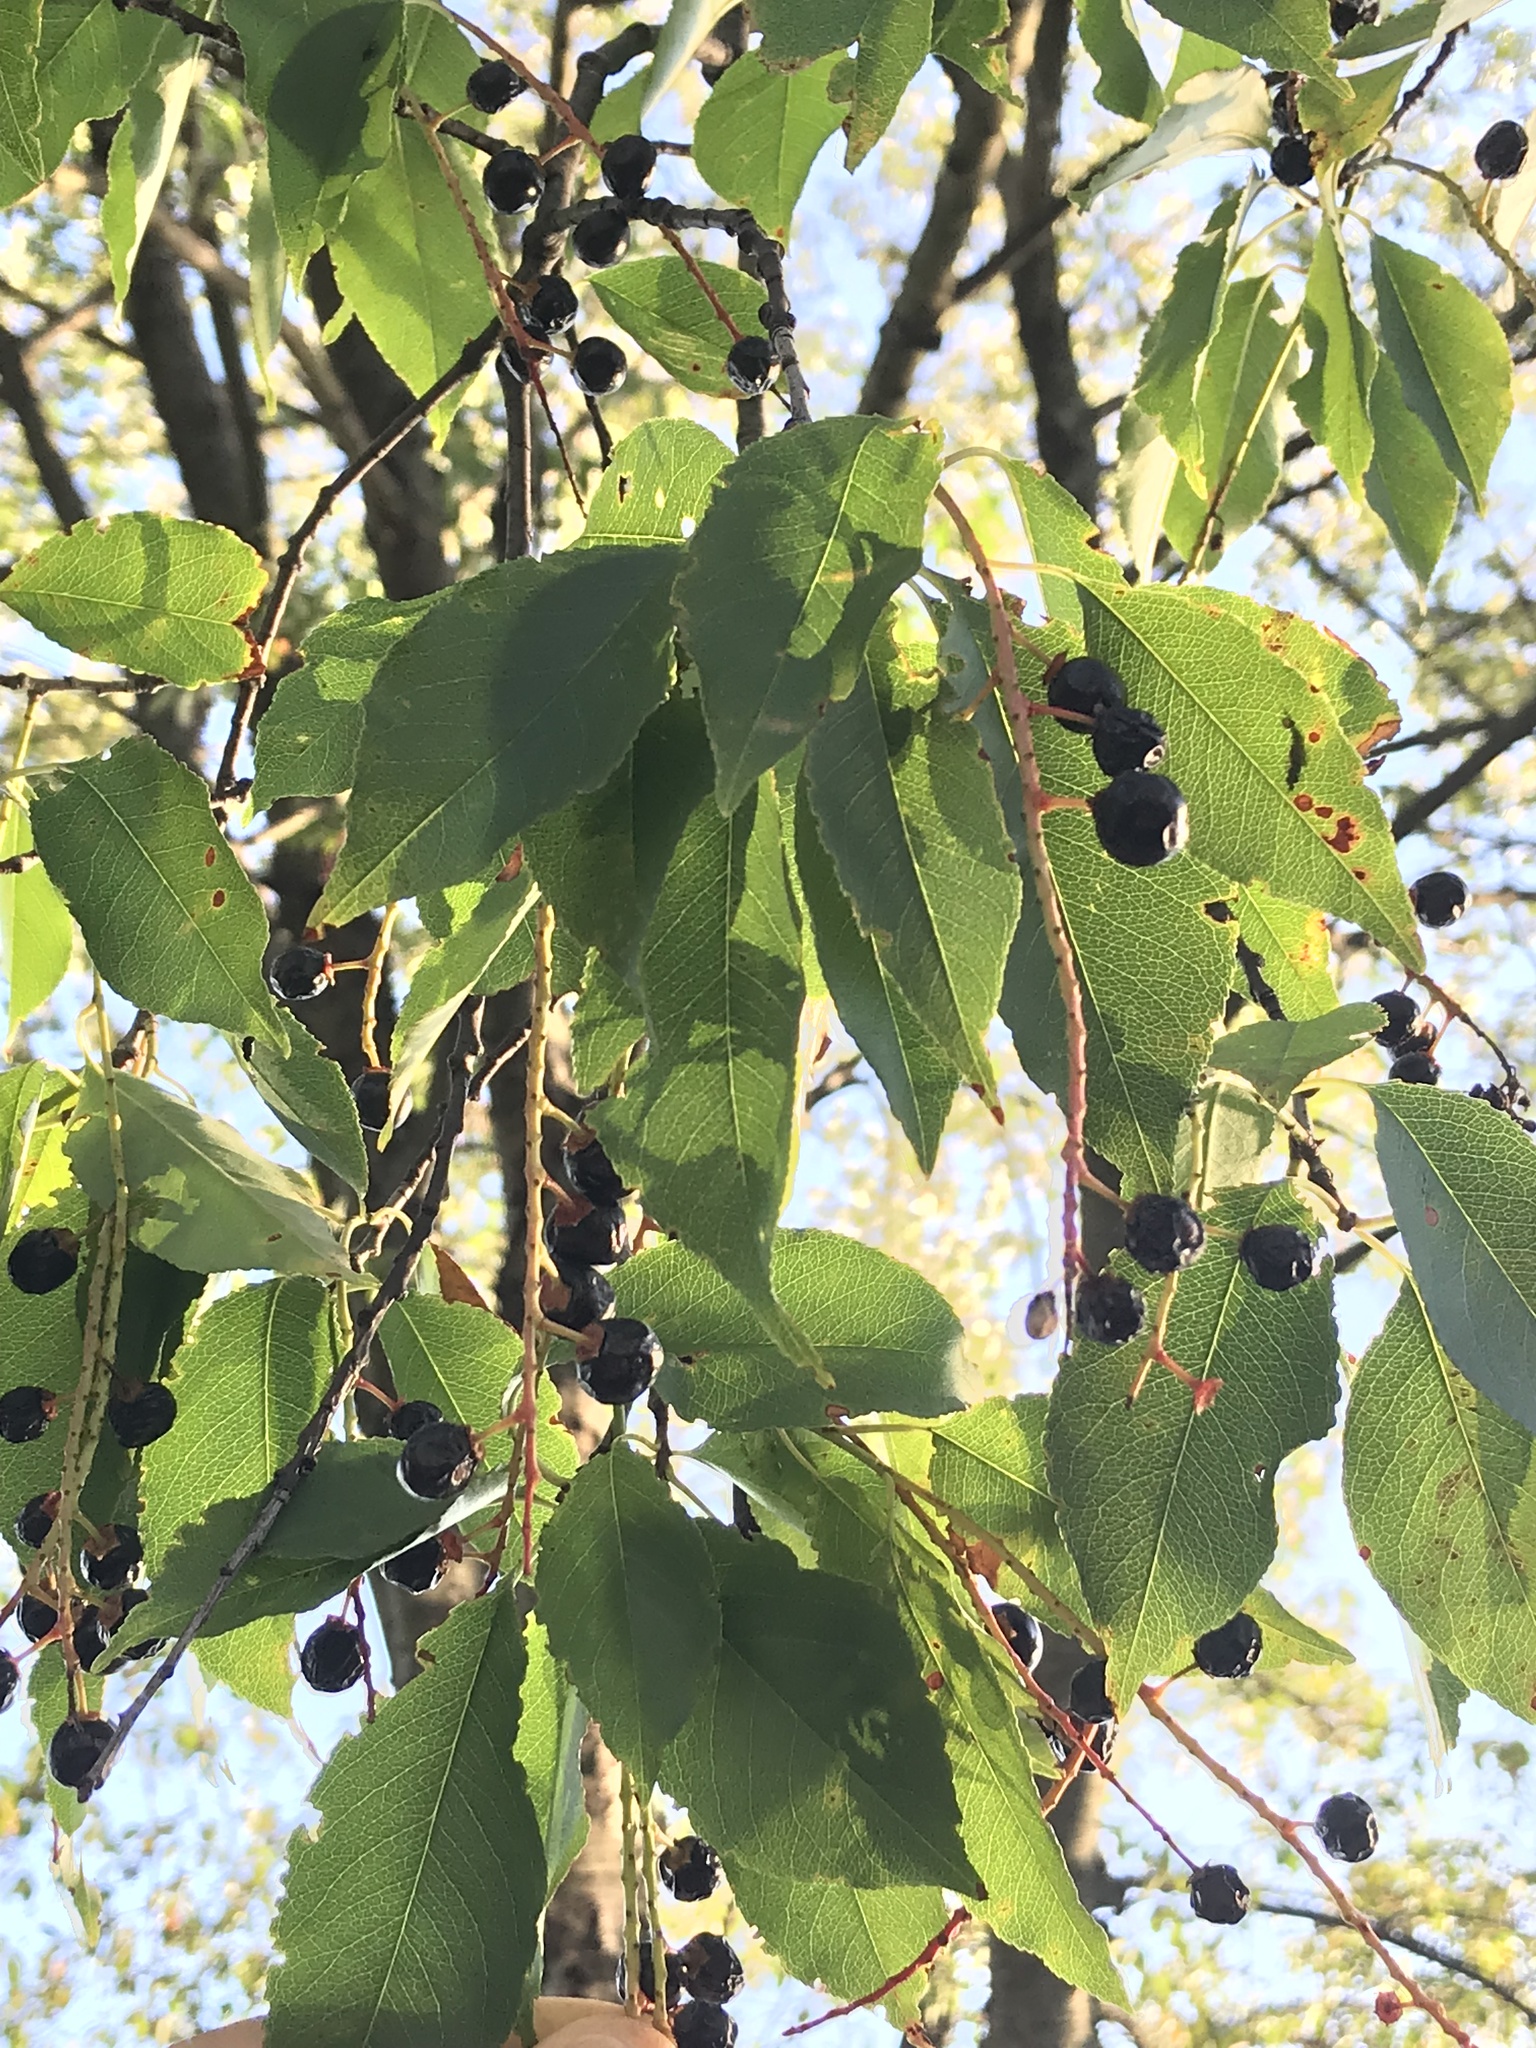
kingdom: Plantae
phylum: Tracheophyta
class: Magnoliopsida
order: Rosales
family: Rosaceae
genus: Prunus
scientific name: Prunus serotina
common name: Black cherry
